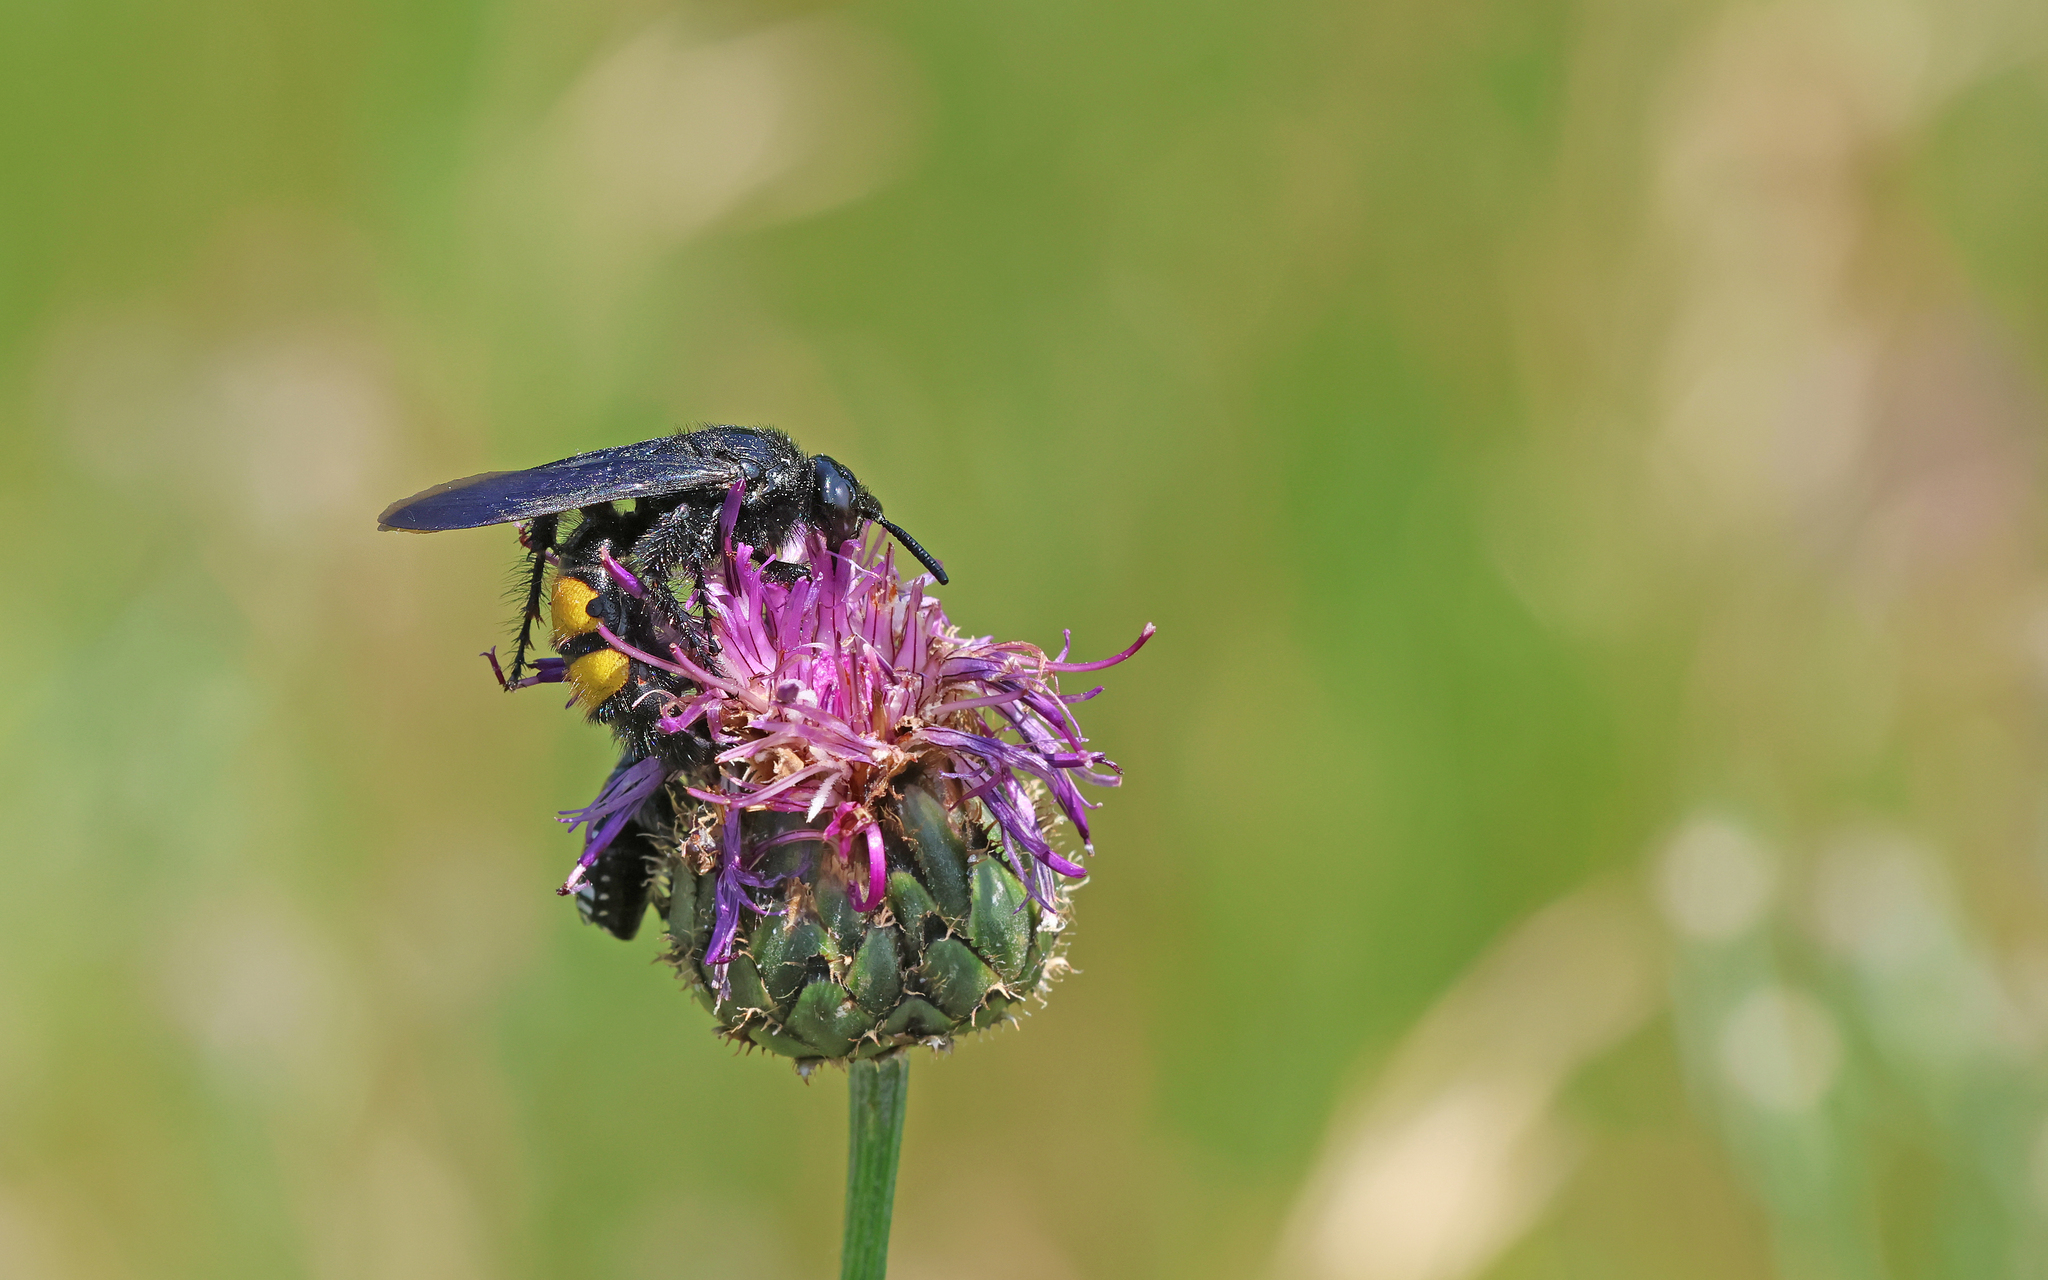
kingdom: Animalia
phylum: Arthropoda
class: Insecta
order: Hymenoptera
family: Scoliidae
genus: Scolia
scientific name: Scolia hirta
